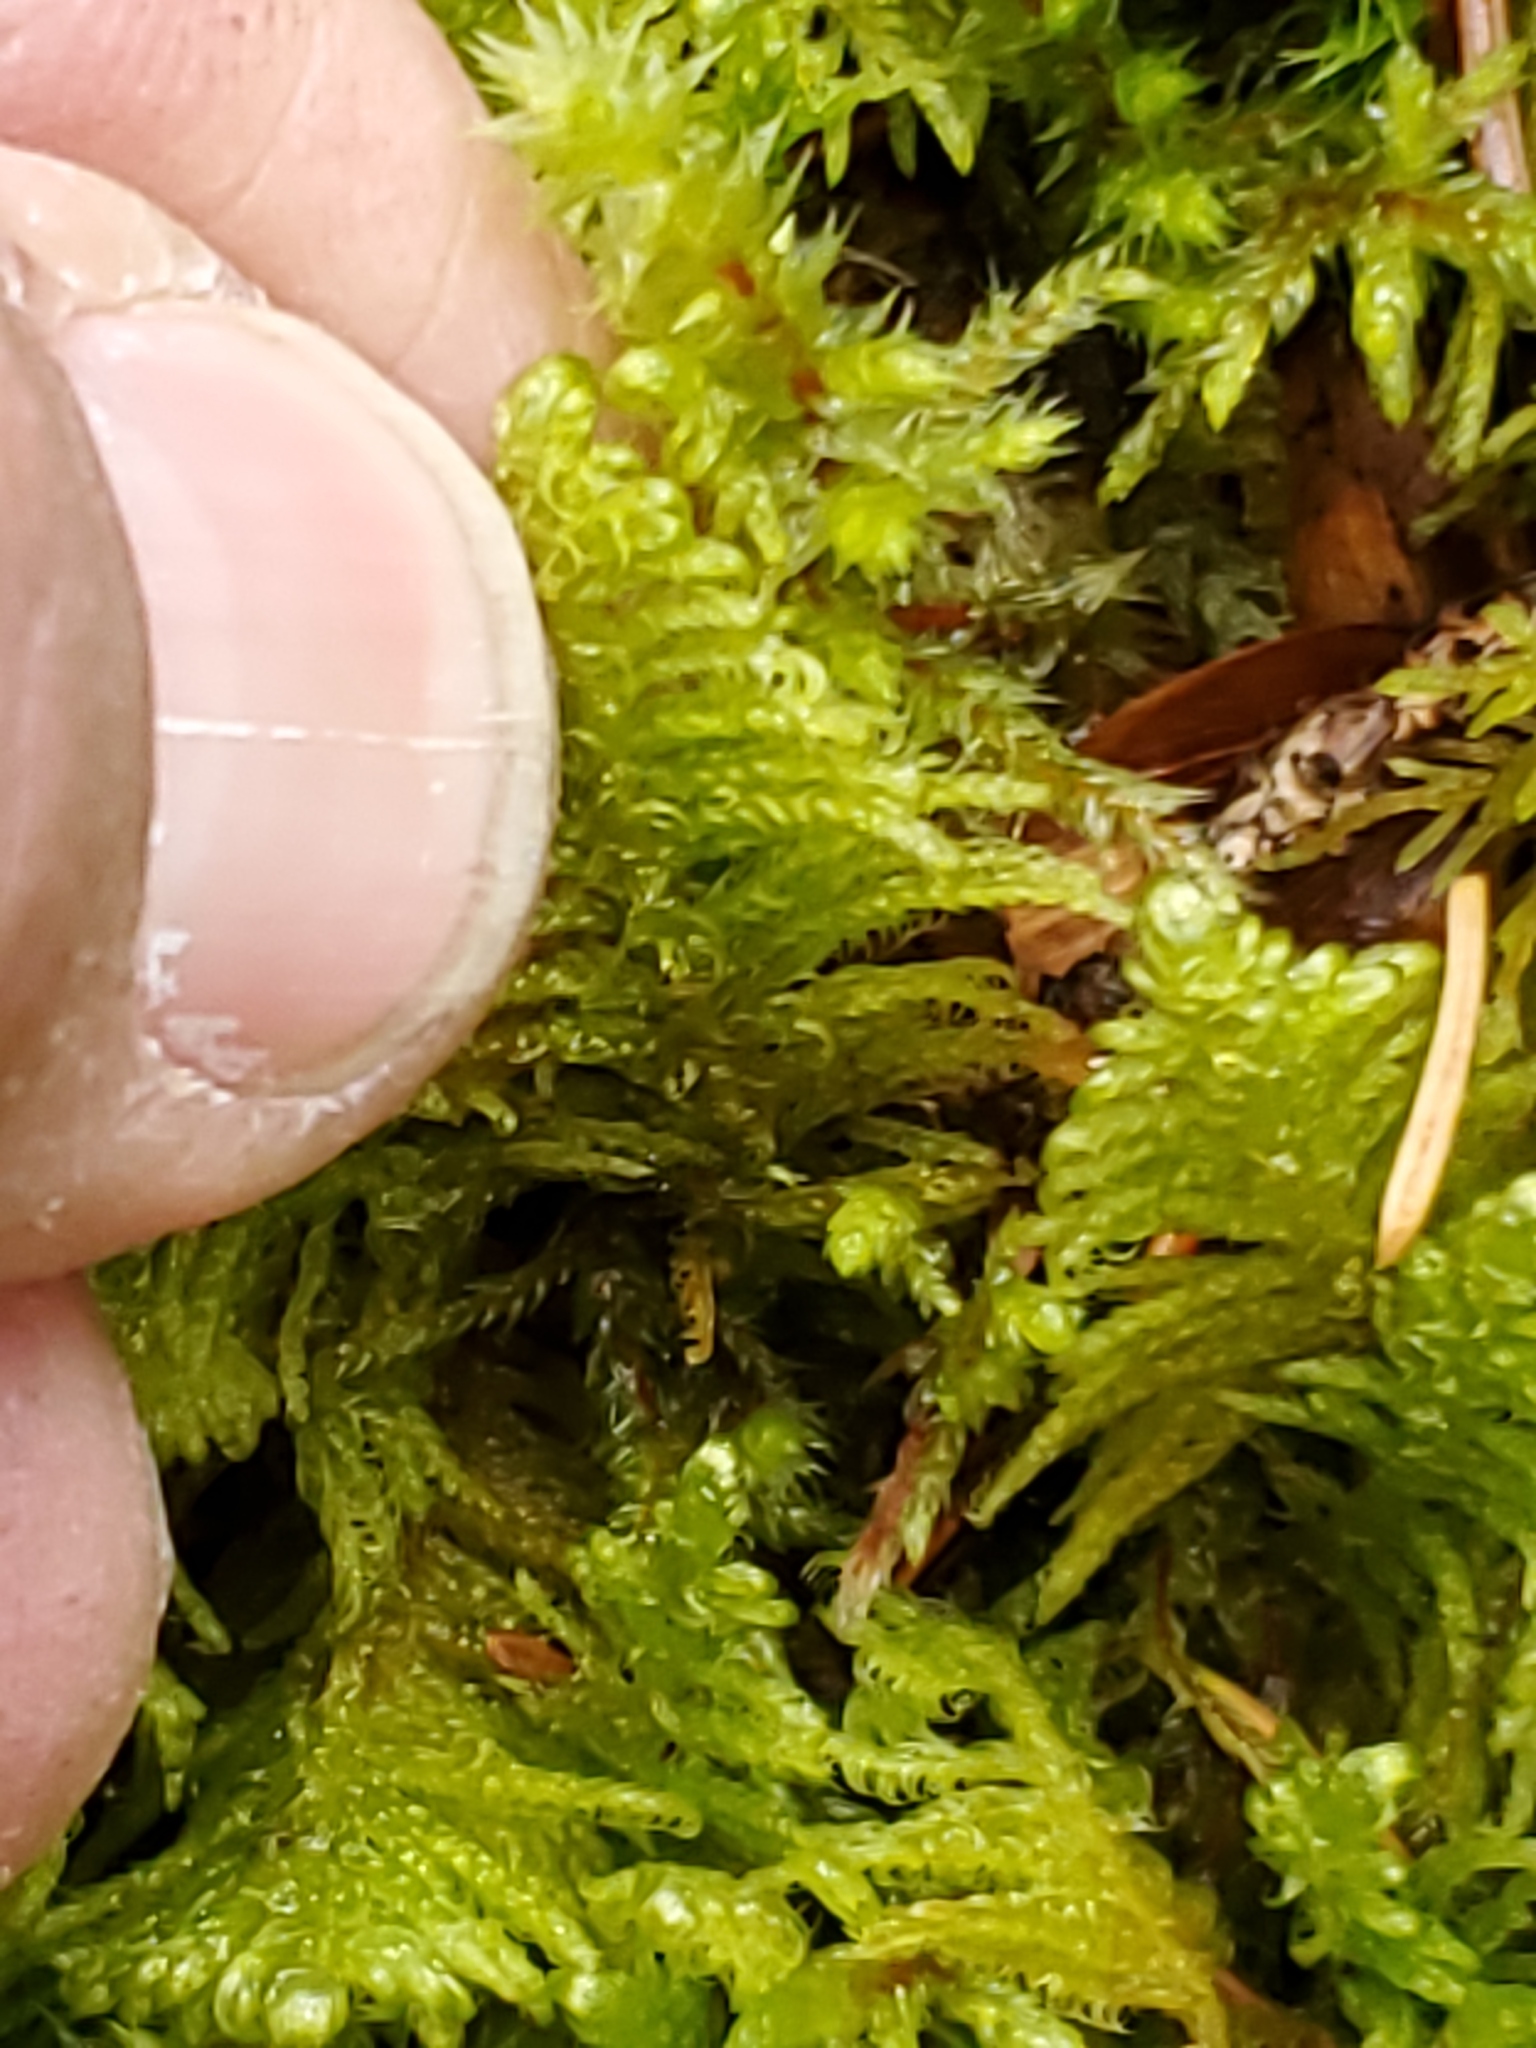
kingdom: Plantae
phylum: Bryophyta
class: Bryopsida
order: Hypnales
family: Pylaisiaceae
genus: Ptilium
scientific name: Ptilium crista-castrensis
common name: Knight's plume moss
